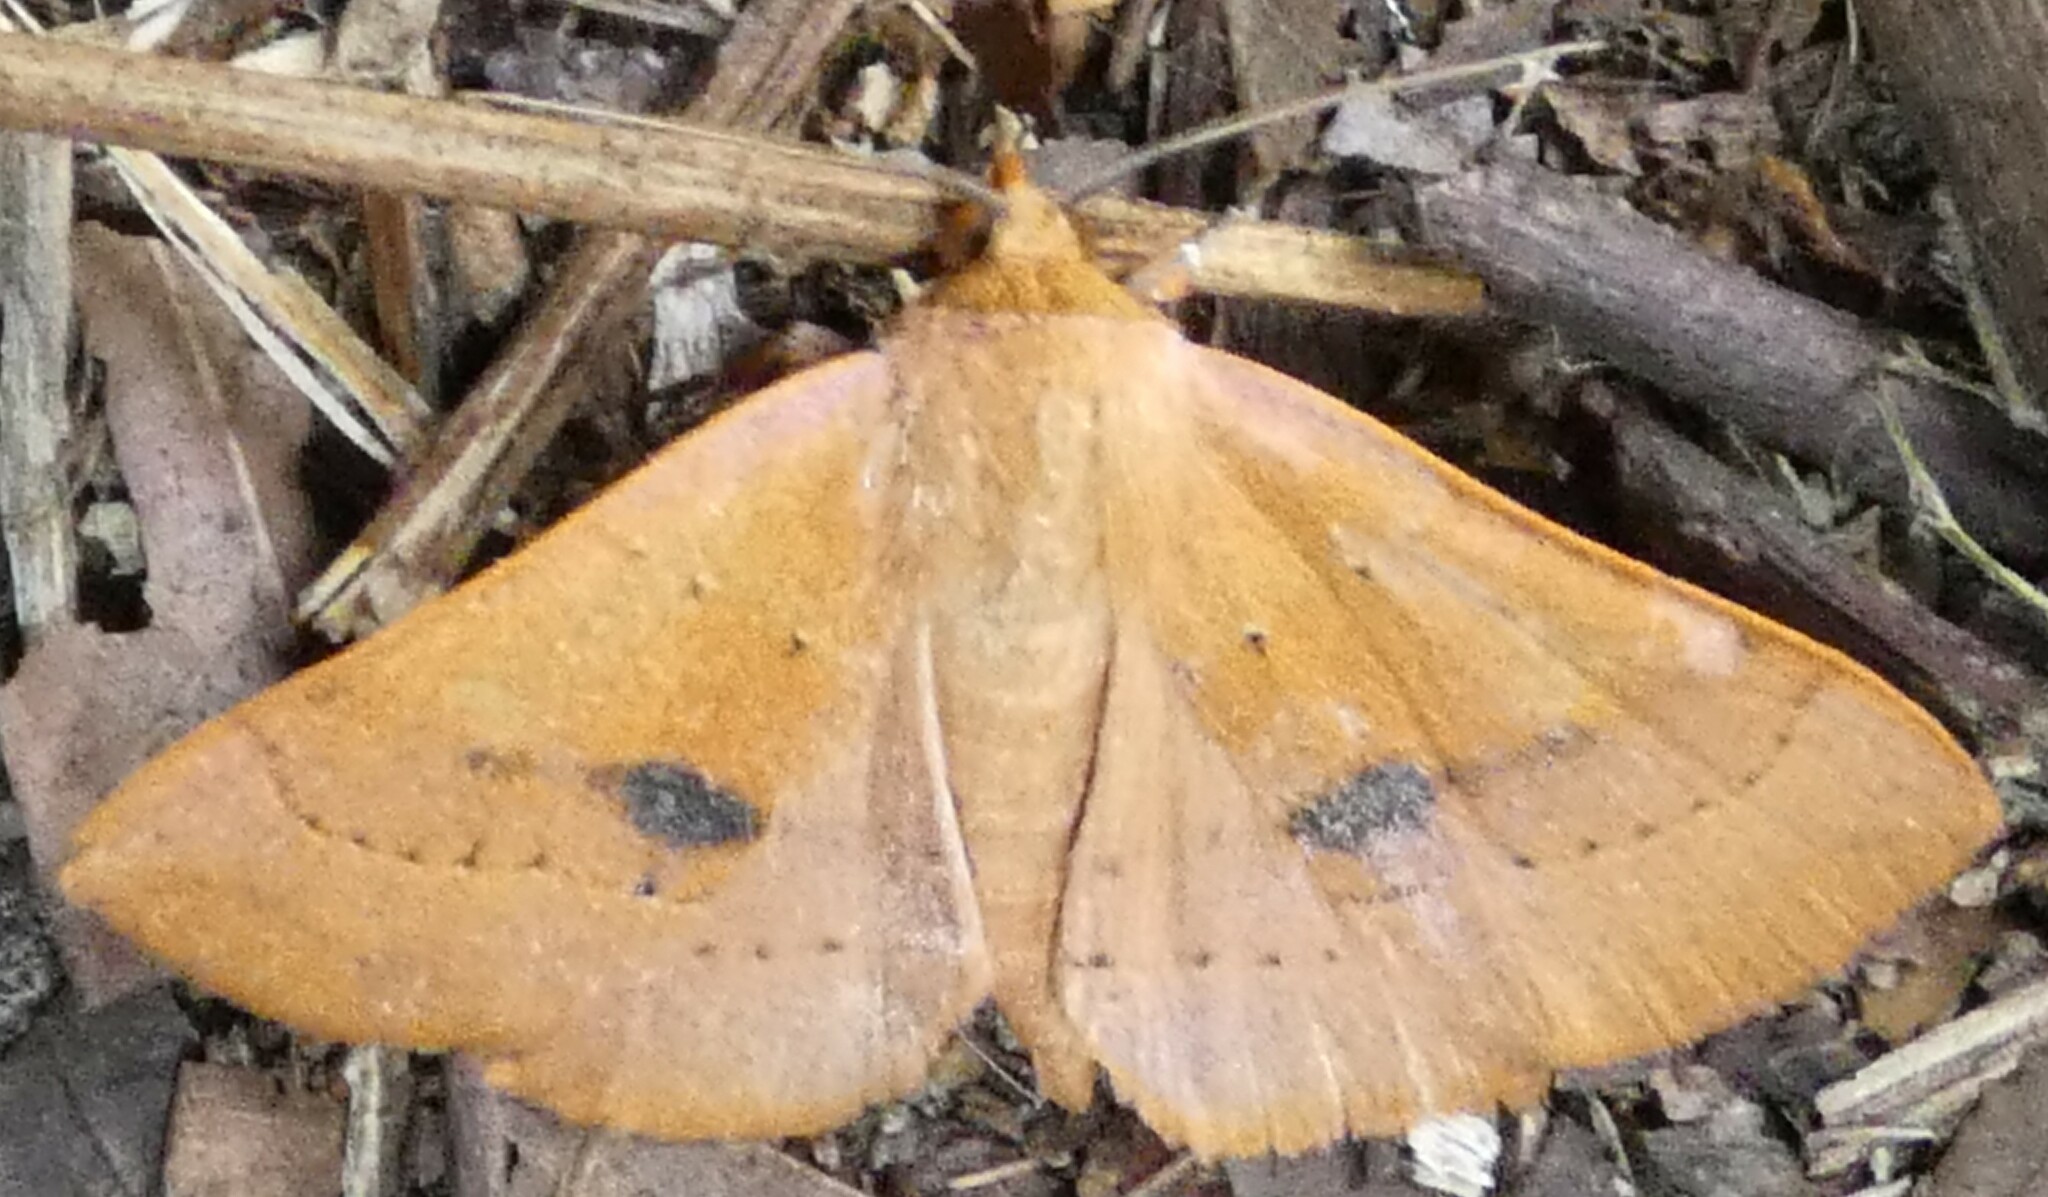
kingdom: Animalia
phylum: Arthropoda
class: Insecta
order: Lepidoptera
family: Erebidae
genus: Panopoda
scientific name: Panopoda repanda
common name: Orange panopoda
